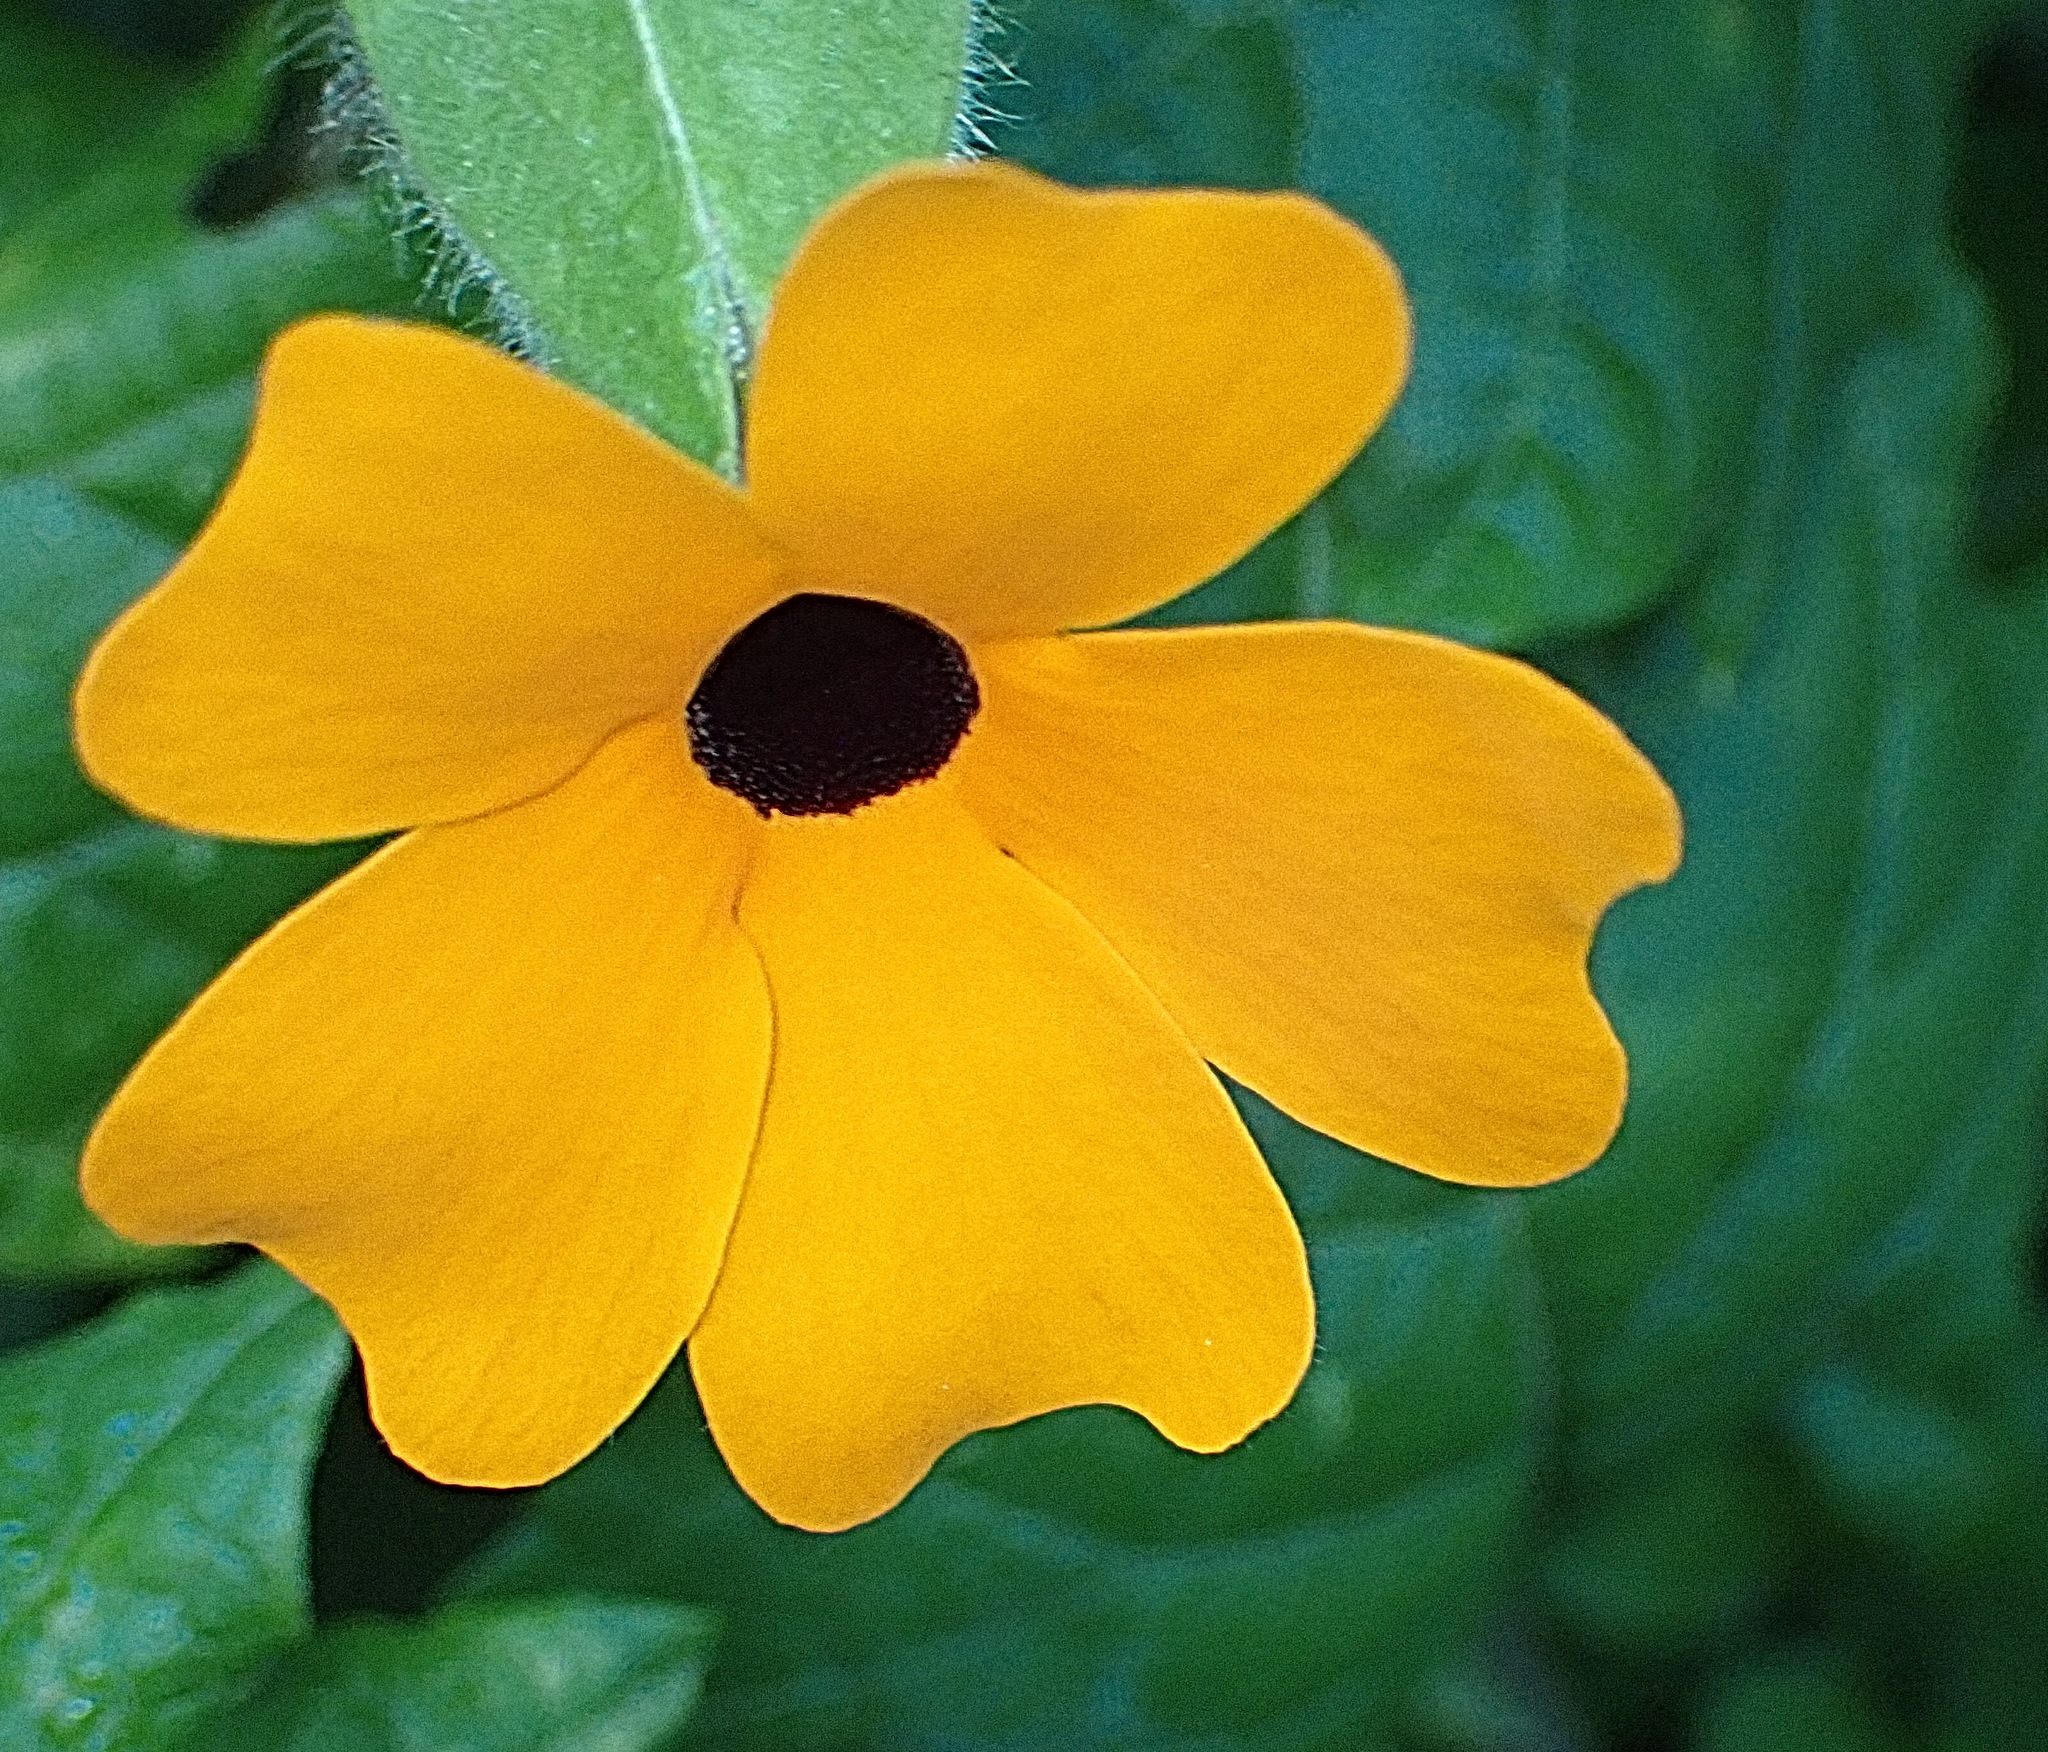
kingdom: Plantae
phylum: Tracheophyta
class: Magnoliopsida
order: Lamiales
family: Acanthaceae
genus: Thunbergia
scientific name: Thunbergia alata
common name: Blackeyed susan vine
